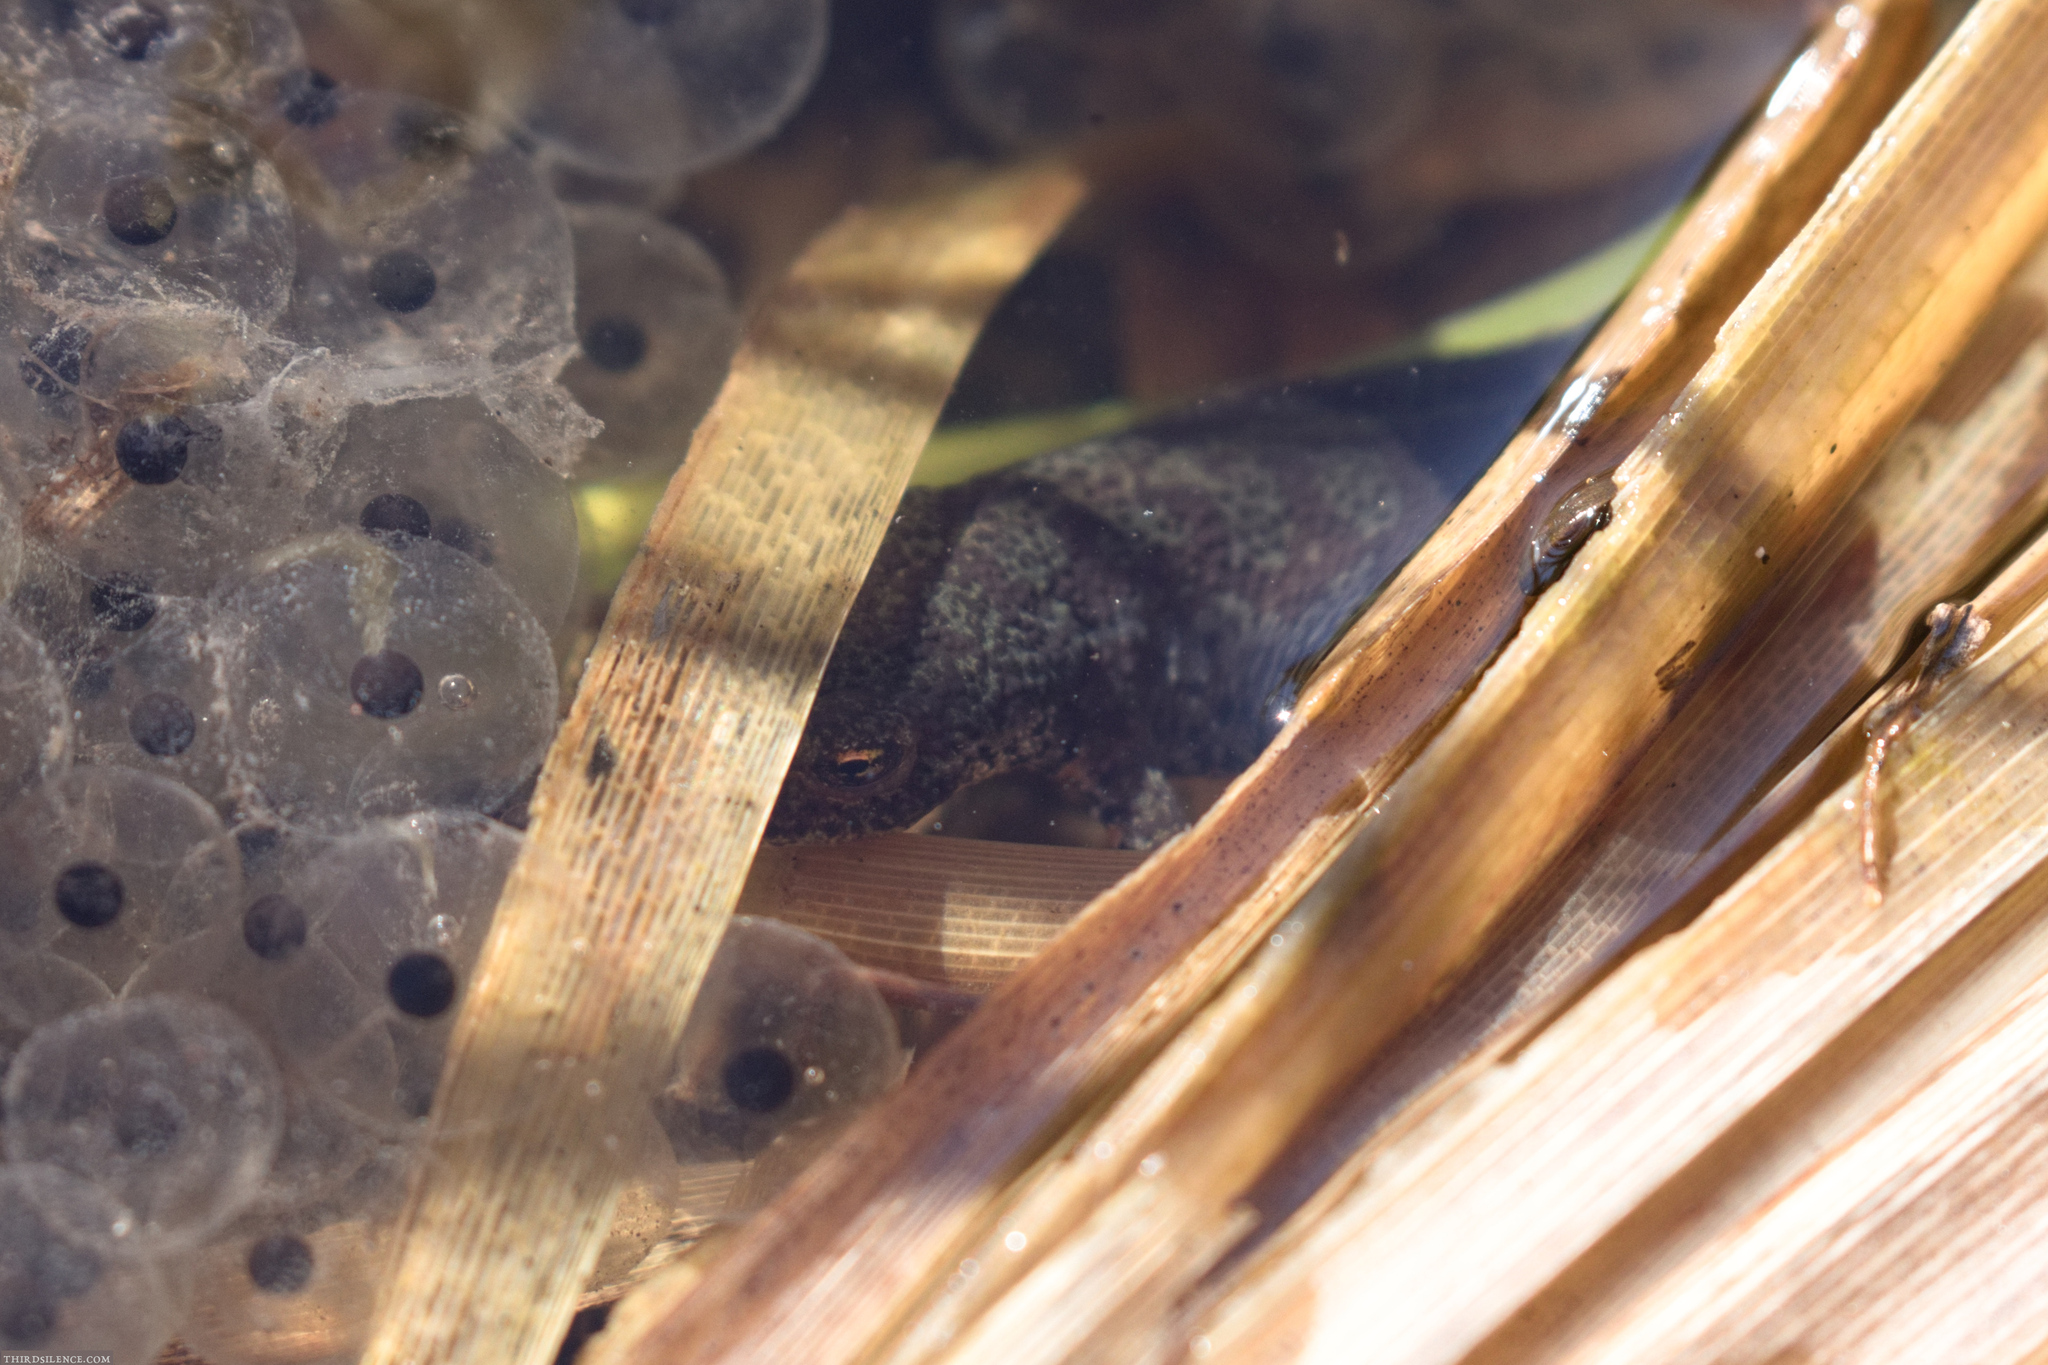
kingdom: Animalia
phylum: Chordata
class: Amphibia
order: Caudata
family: Salamandridae
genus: Ichthyosaura
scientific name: Ichthyosaura alpestris
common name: Alpine newt
